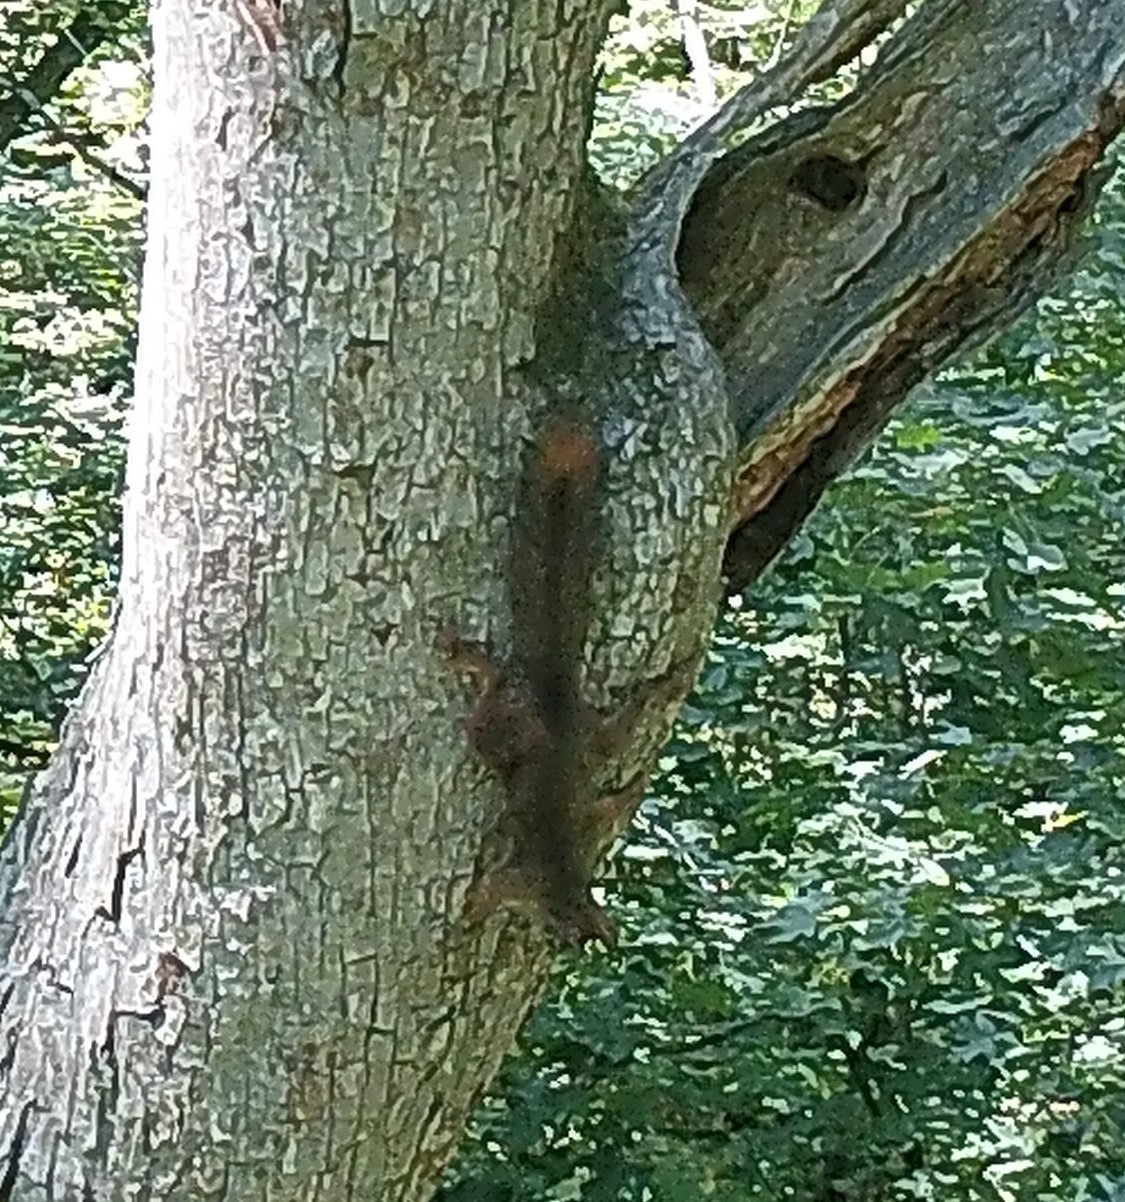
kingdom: Animalia
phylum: Chordata
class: Mammalia
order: Rodentia
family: Sciuridae
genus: Sciurus
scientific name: Sciurus vulgaris
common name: Eurasian red squirrel
